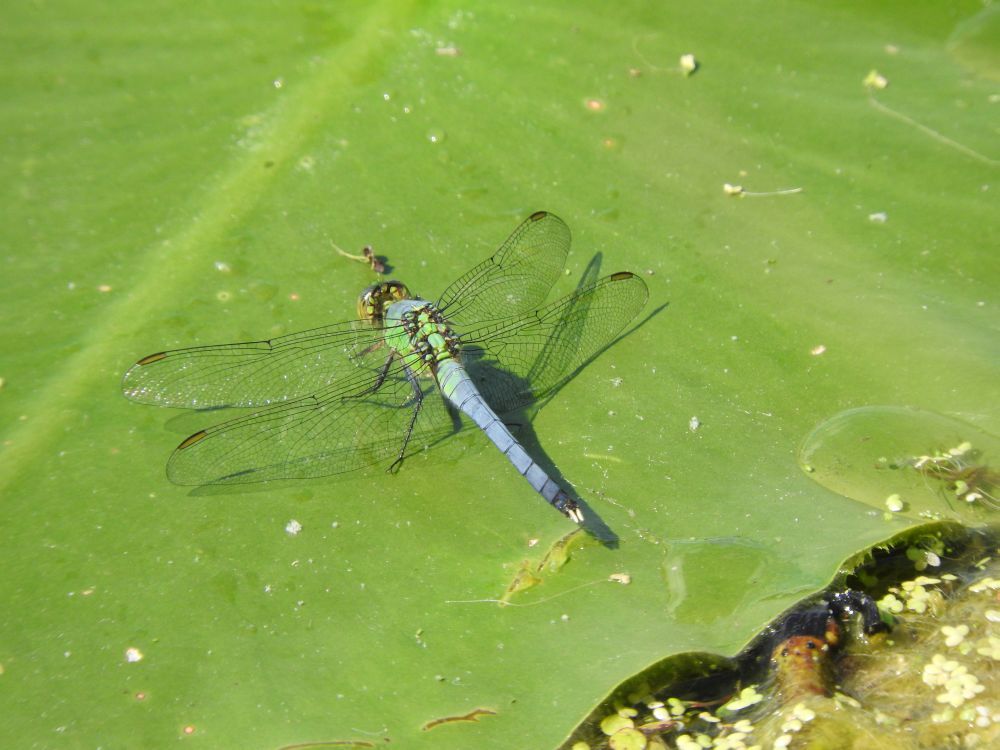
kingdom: Animalia
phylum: Arthropoda
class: Insecta
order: Odonata
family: Libellulidae
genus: Erythemis
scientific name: Erythemis simplicicollis
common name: Eastern pondhawk
